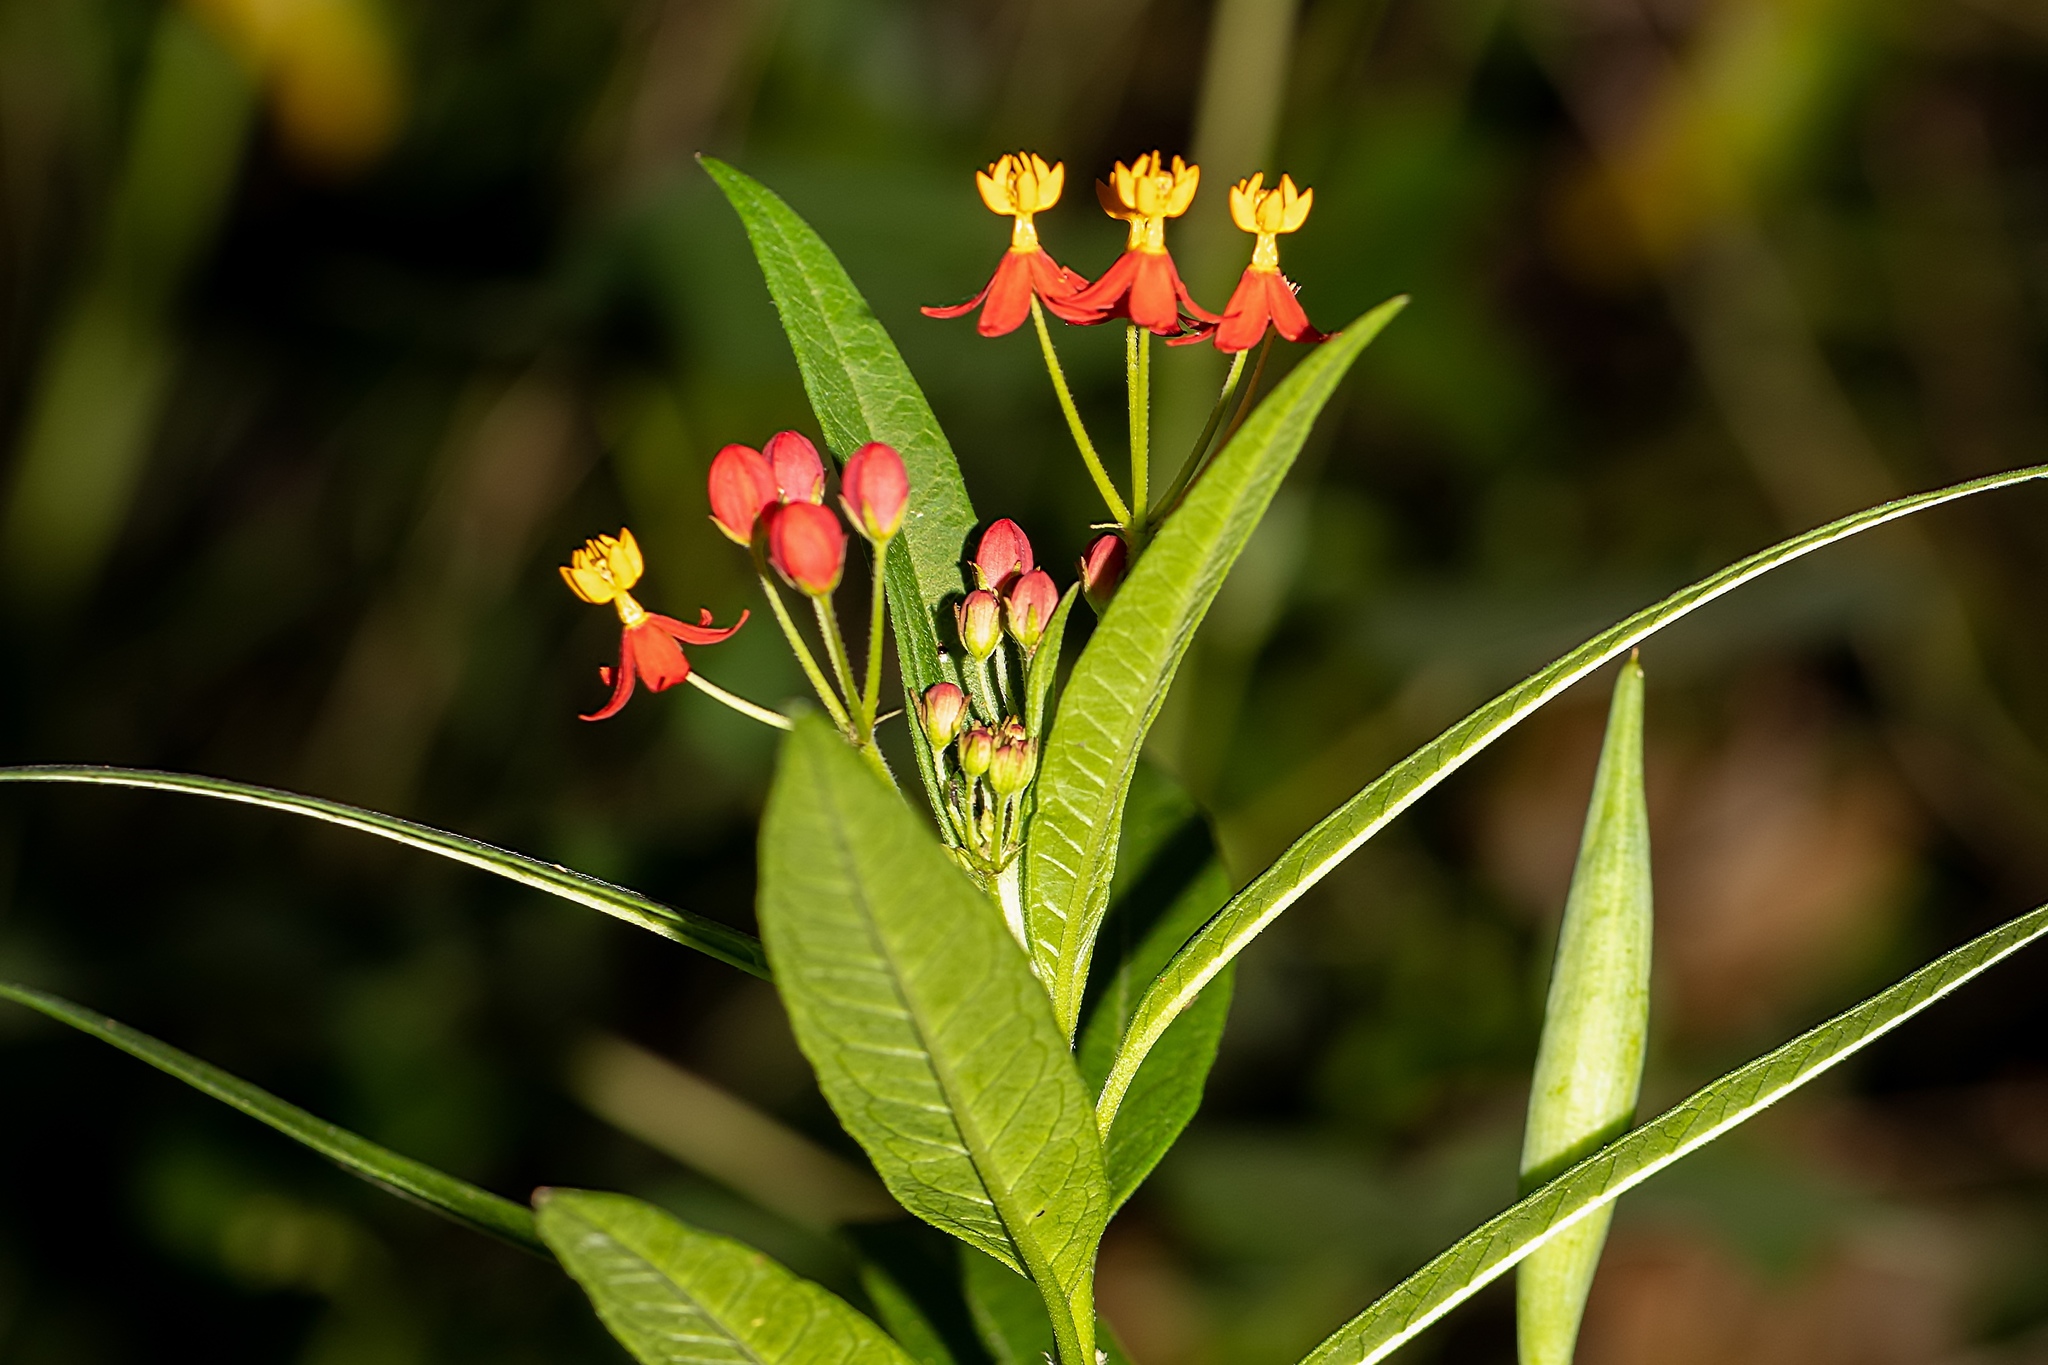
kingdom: Plantae
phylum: Tracheophyta
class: Magnoliopsida
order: Gentianales
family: Apocynaceae
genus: Asclepias
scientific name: Asclepias curassavica
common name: Bloodflower
